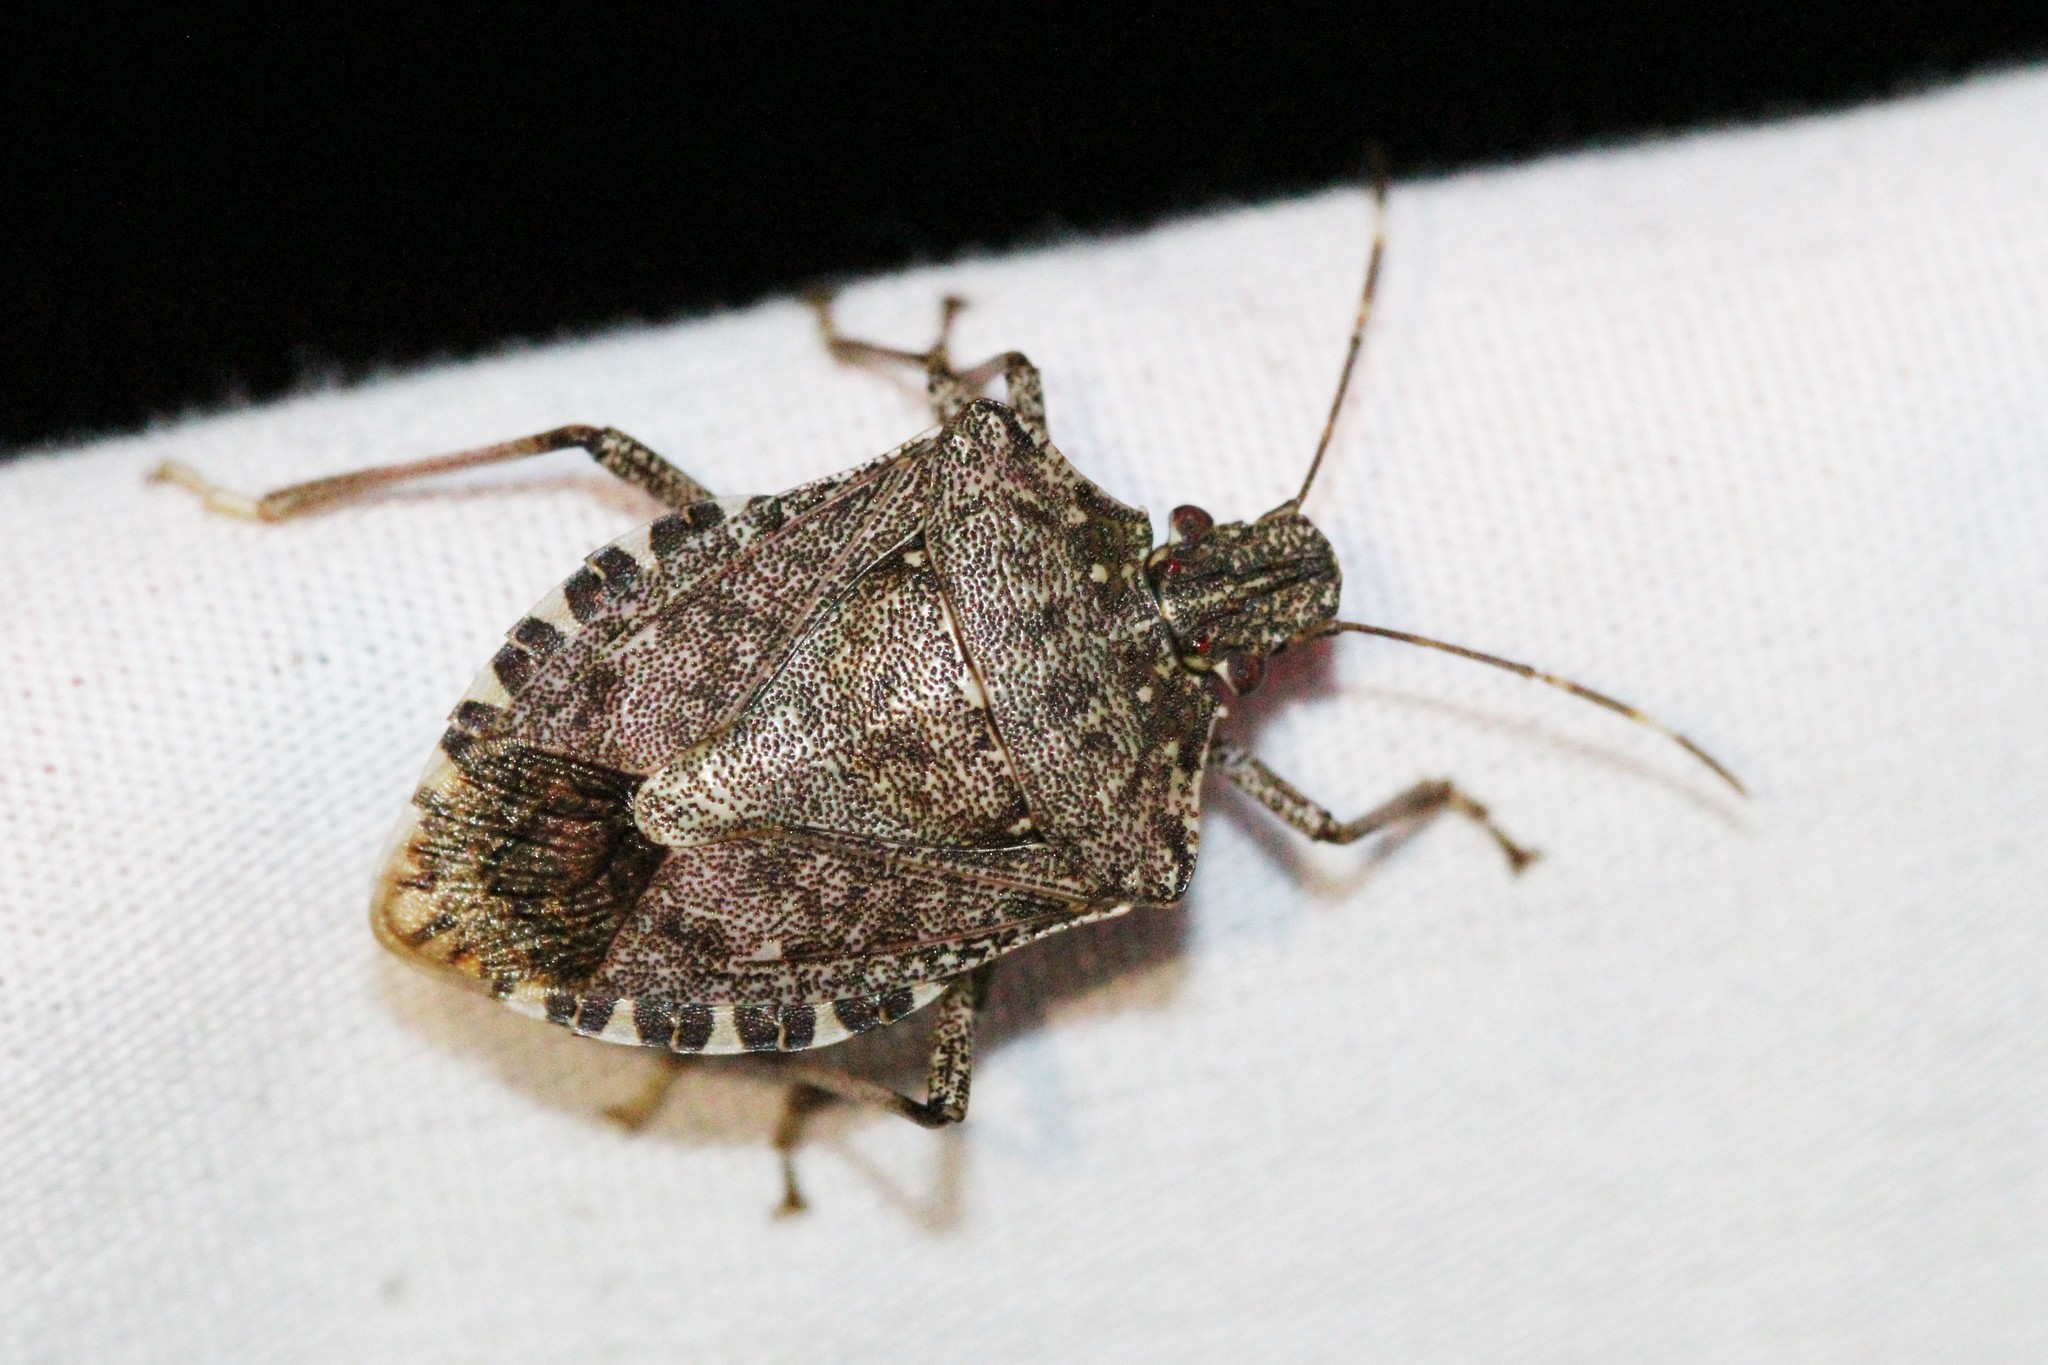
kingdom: Animalia
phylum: Arthropoda
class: Insecta
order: Hemiptera
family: Pentatomidae
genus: Halyomorpha
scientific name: Halyomorpha halys
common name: Brown marmorated stink bug
